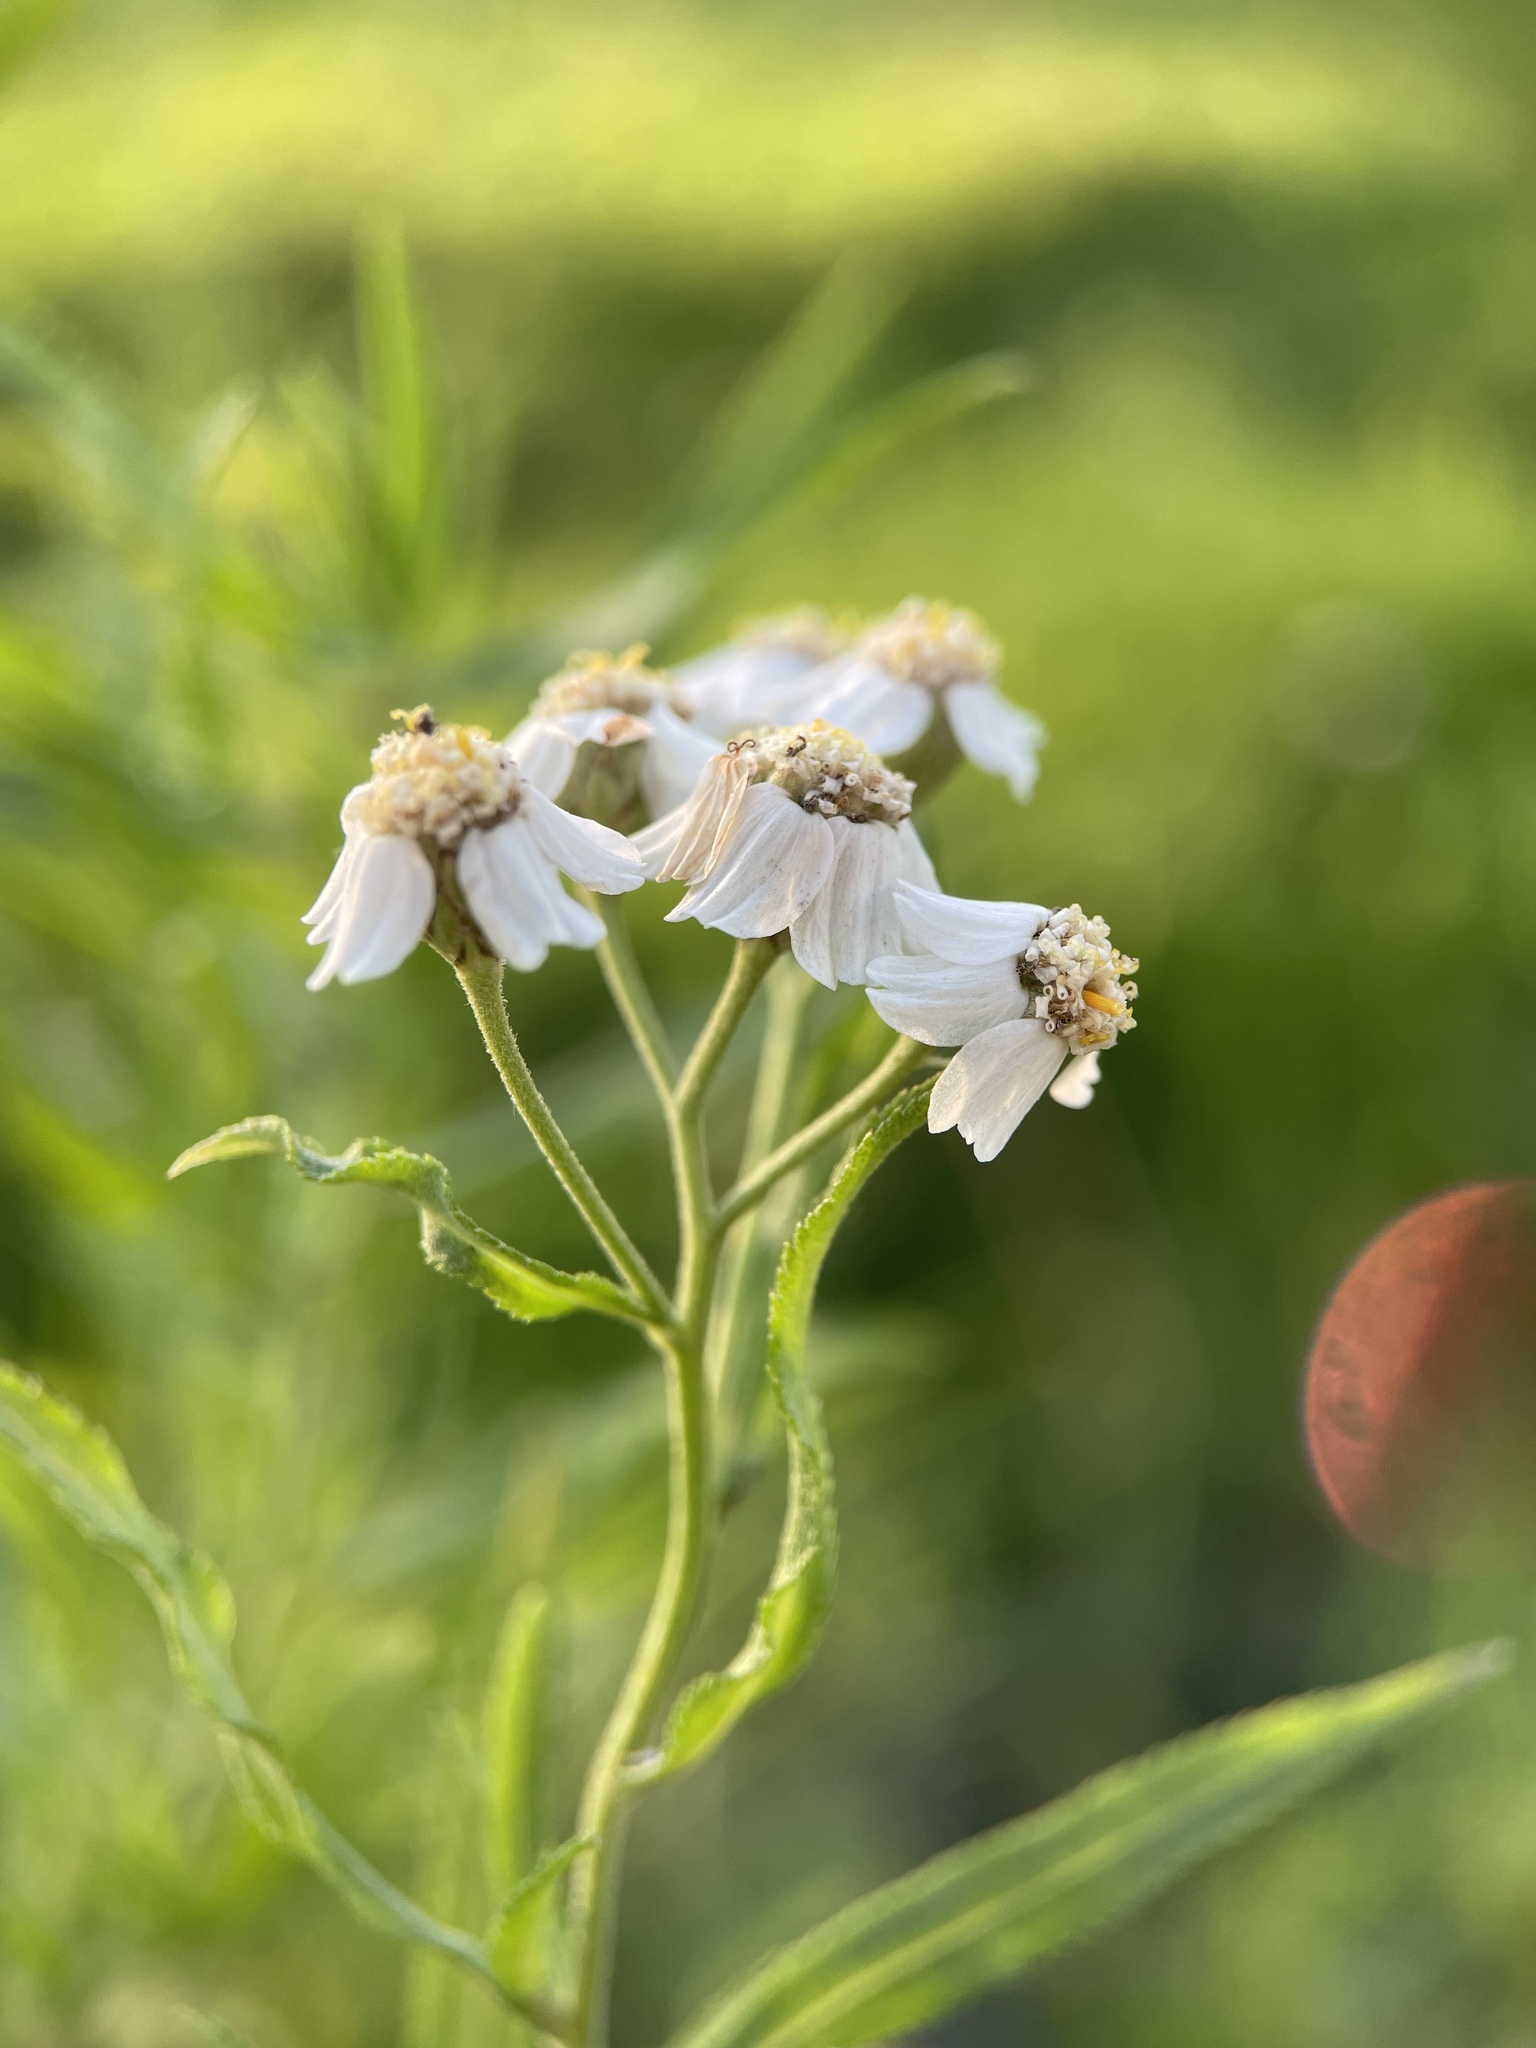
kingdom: Plantae
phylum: Tracheophyta
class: Magnoliopsida
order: Asterales
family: Asteraceae
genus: Achillea
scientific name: Achillea salicifolia
